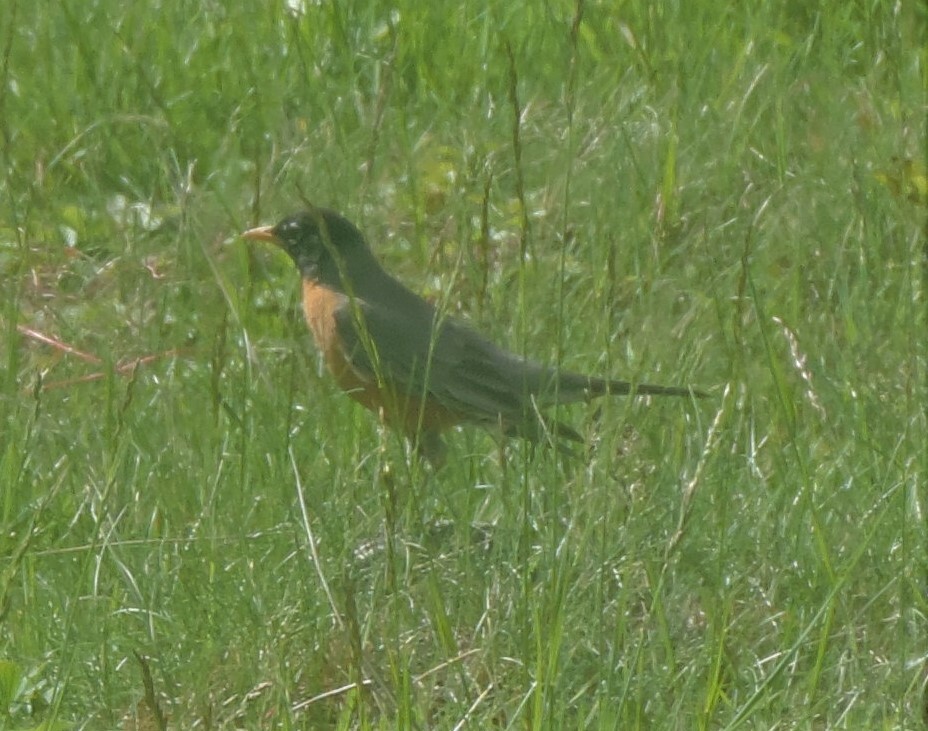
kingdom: Animalia
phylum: Chordata
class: Aves
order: Passeriformes
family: Turdidae
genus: Turdus
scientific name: Turdus migratorius
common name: American robin
